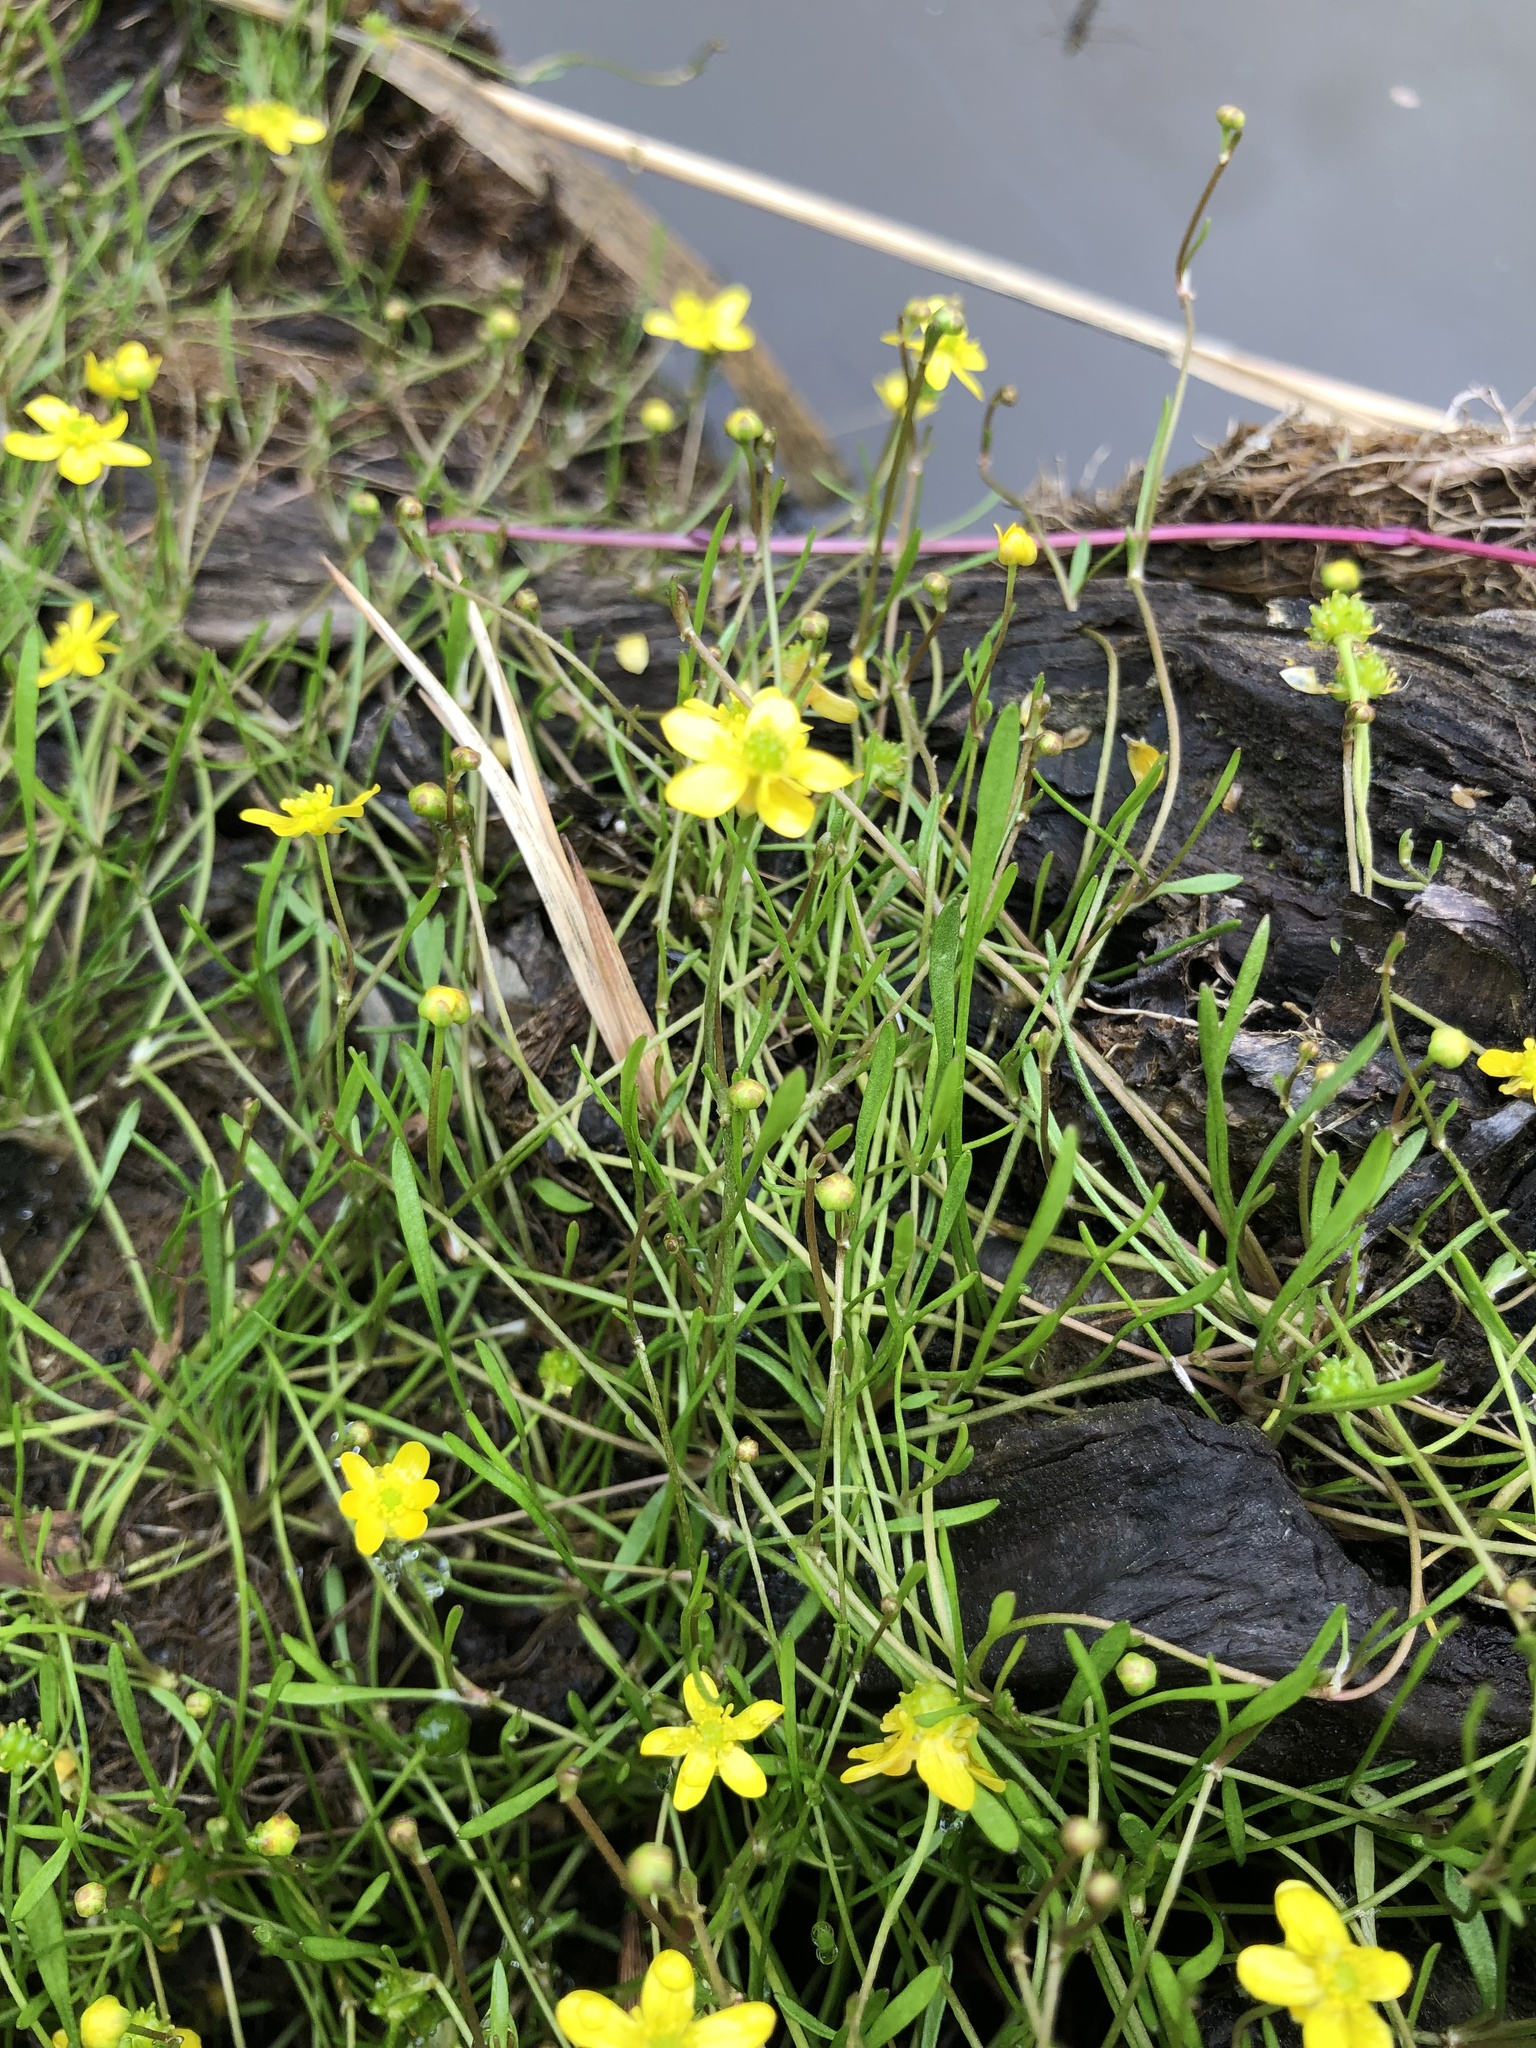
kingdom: Plantae
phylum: Tracheophyta
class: Magnoliopsida
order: Ranunculales
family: Ranunculaceae
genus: Ranunculus
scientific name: Ranunculus reptans
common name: Creeping spearwort
